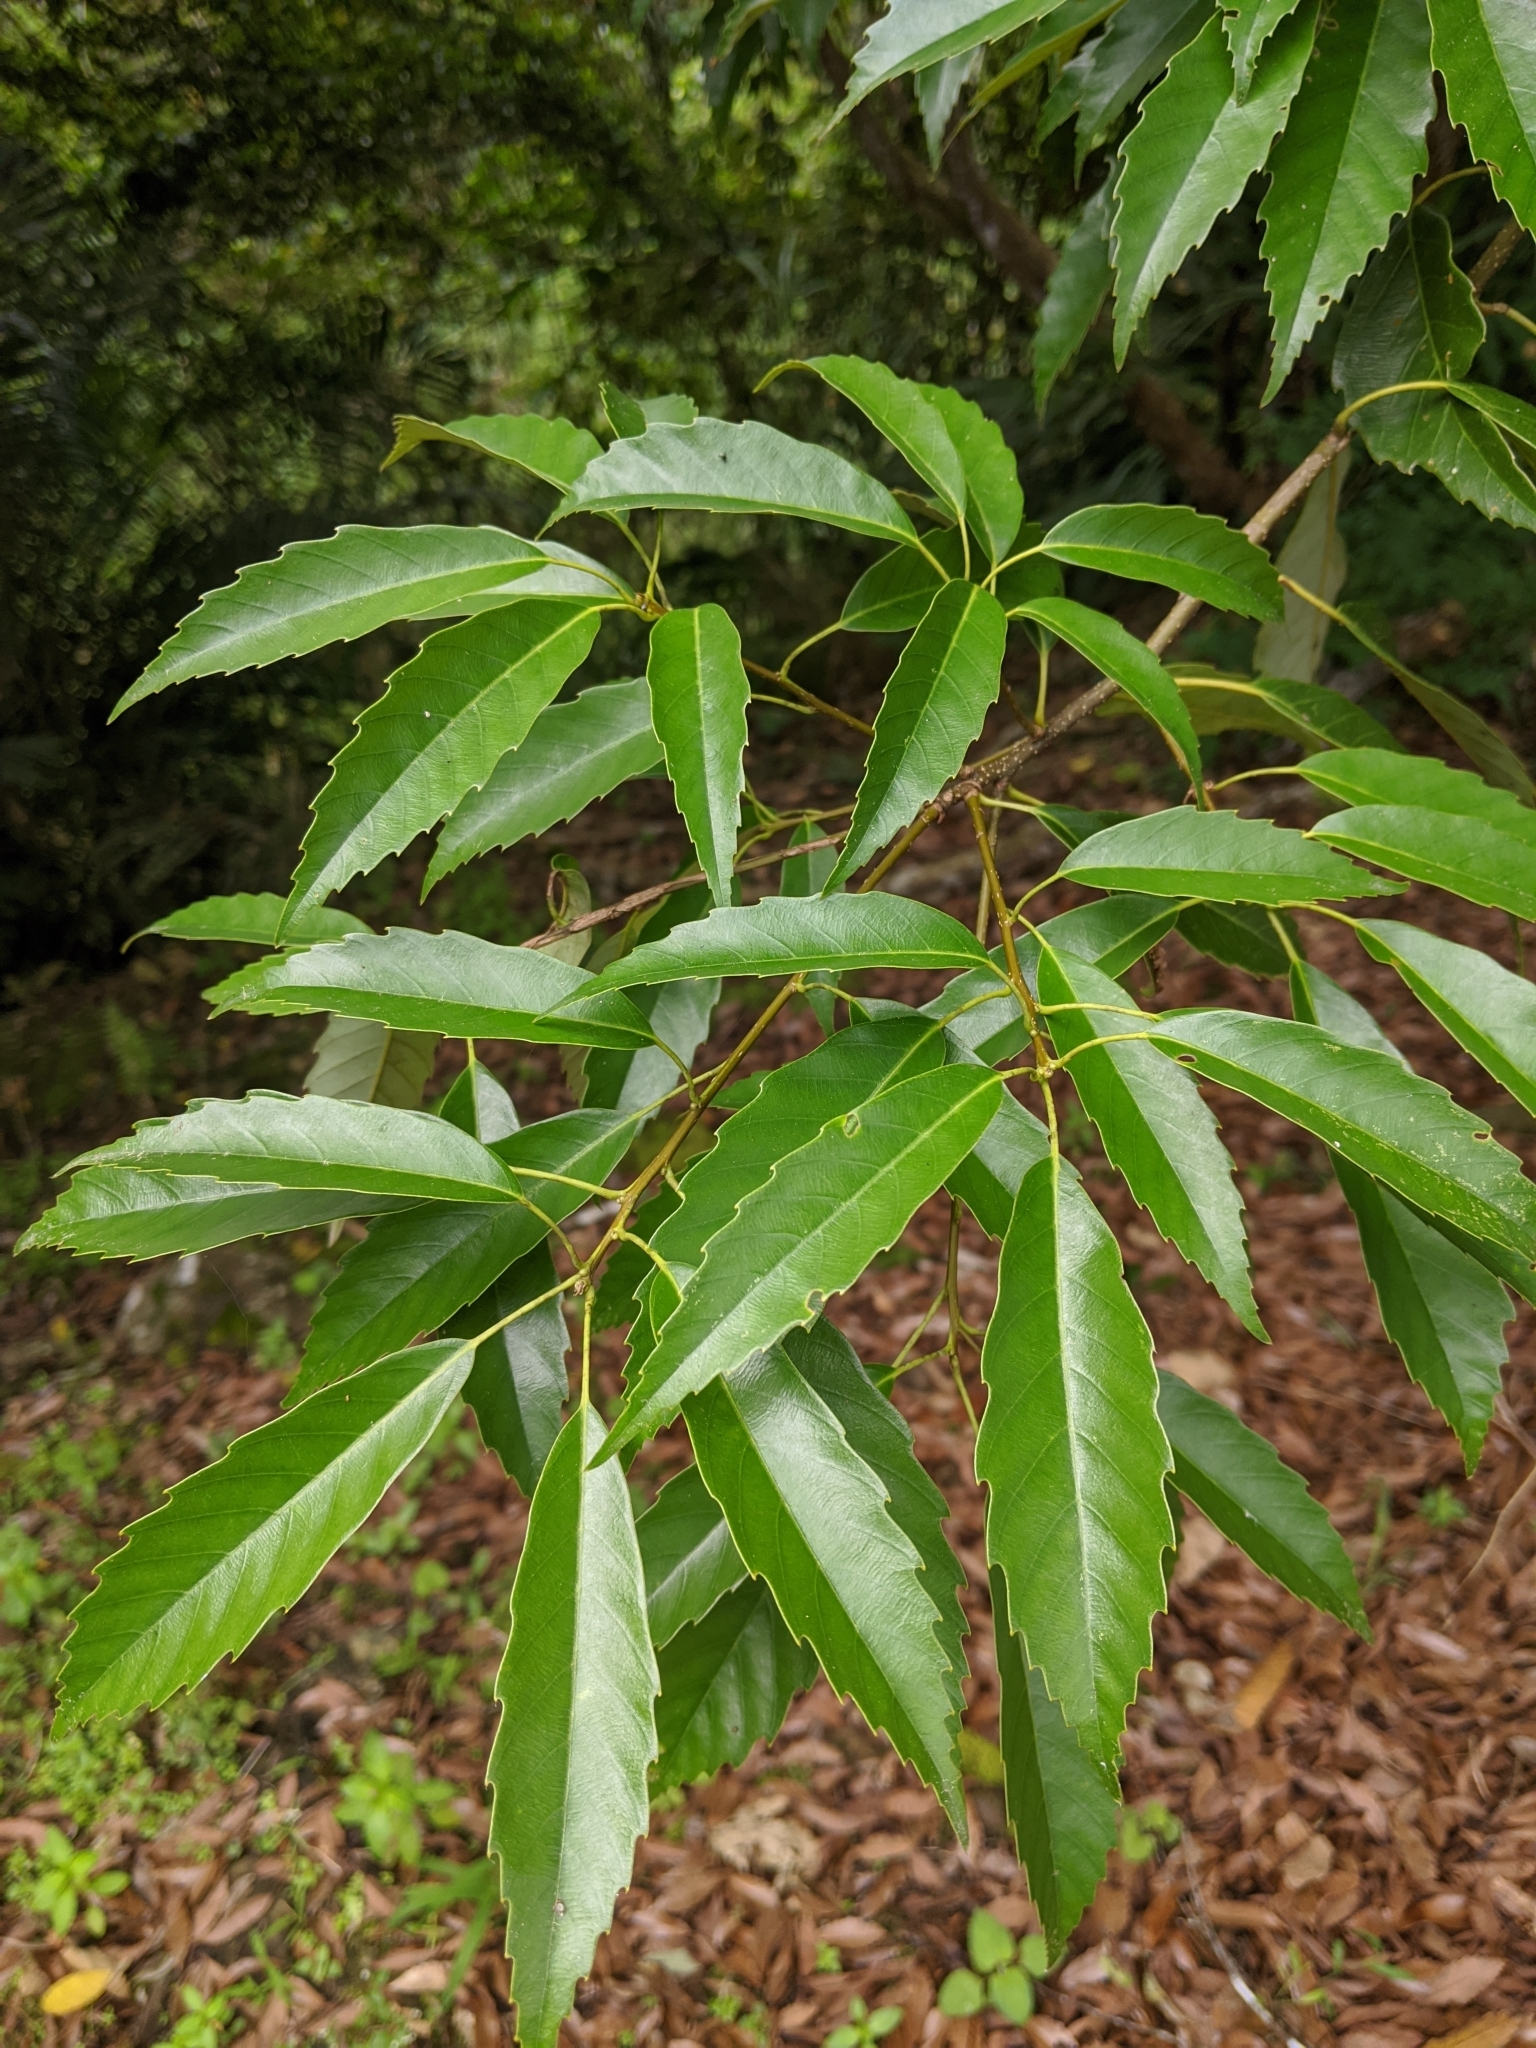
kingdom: Plantae
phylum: Tracheophyta
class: Magnoliopsida
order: Fagales
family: Fagaceae
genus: Quercus
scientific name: Quercus glauca
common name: Ring-cup oak
